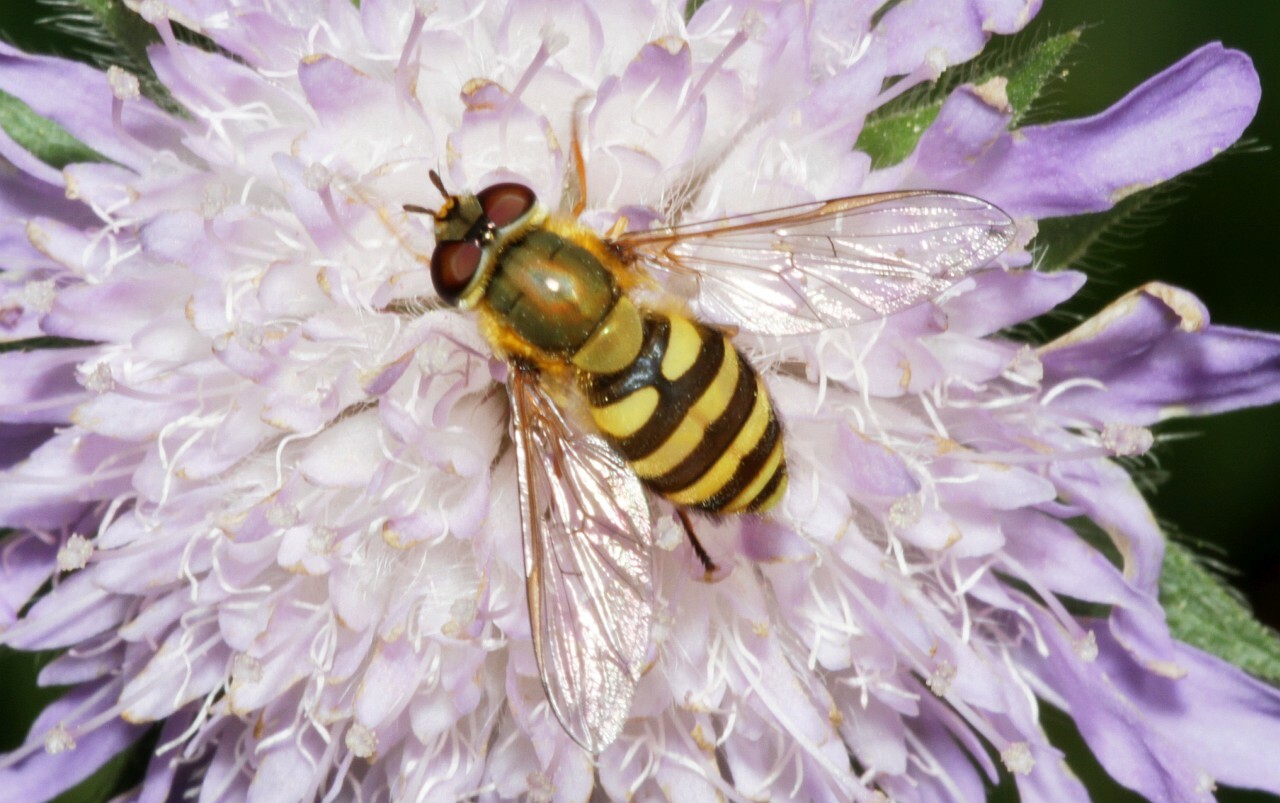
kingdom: Animalia
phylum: Arthropoda
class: Insecta
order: Diptera
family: Syrphidae
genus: Syrphus
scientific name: Syrphus
